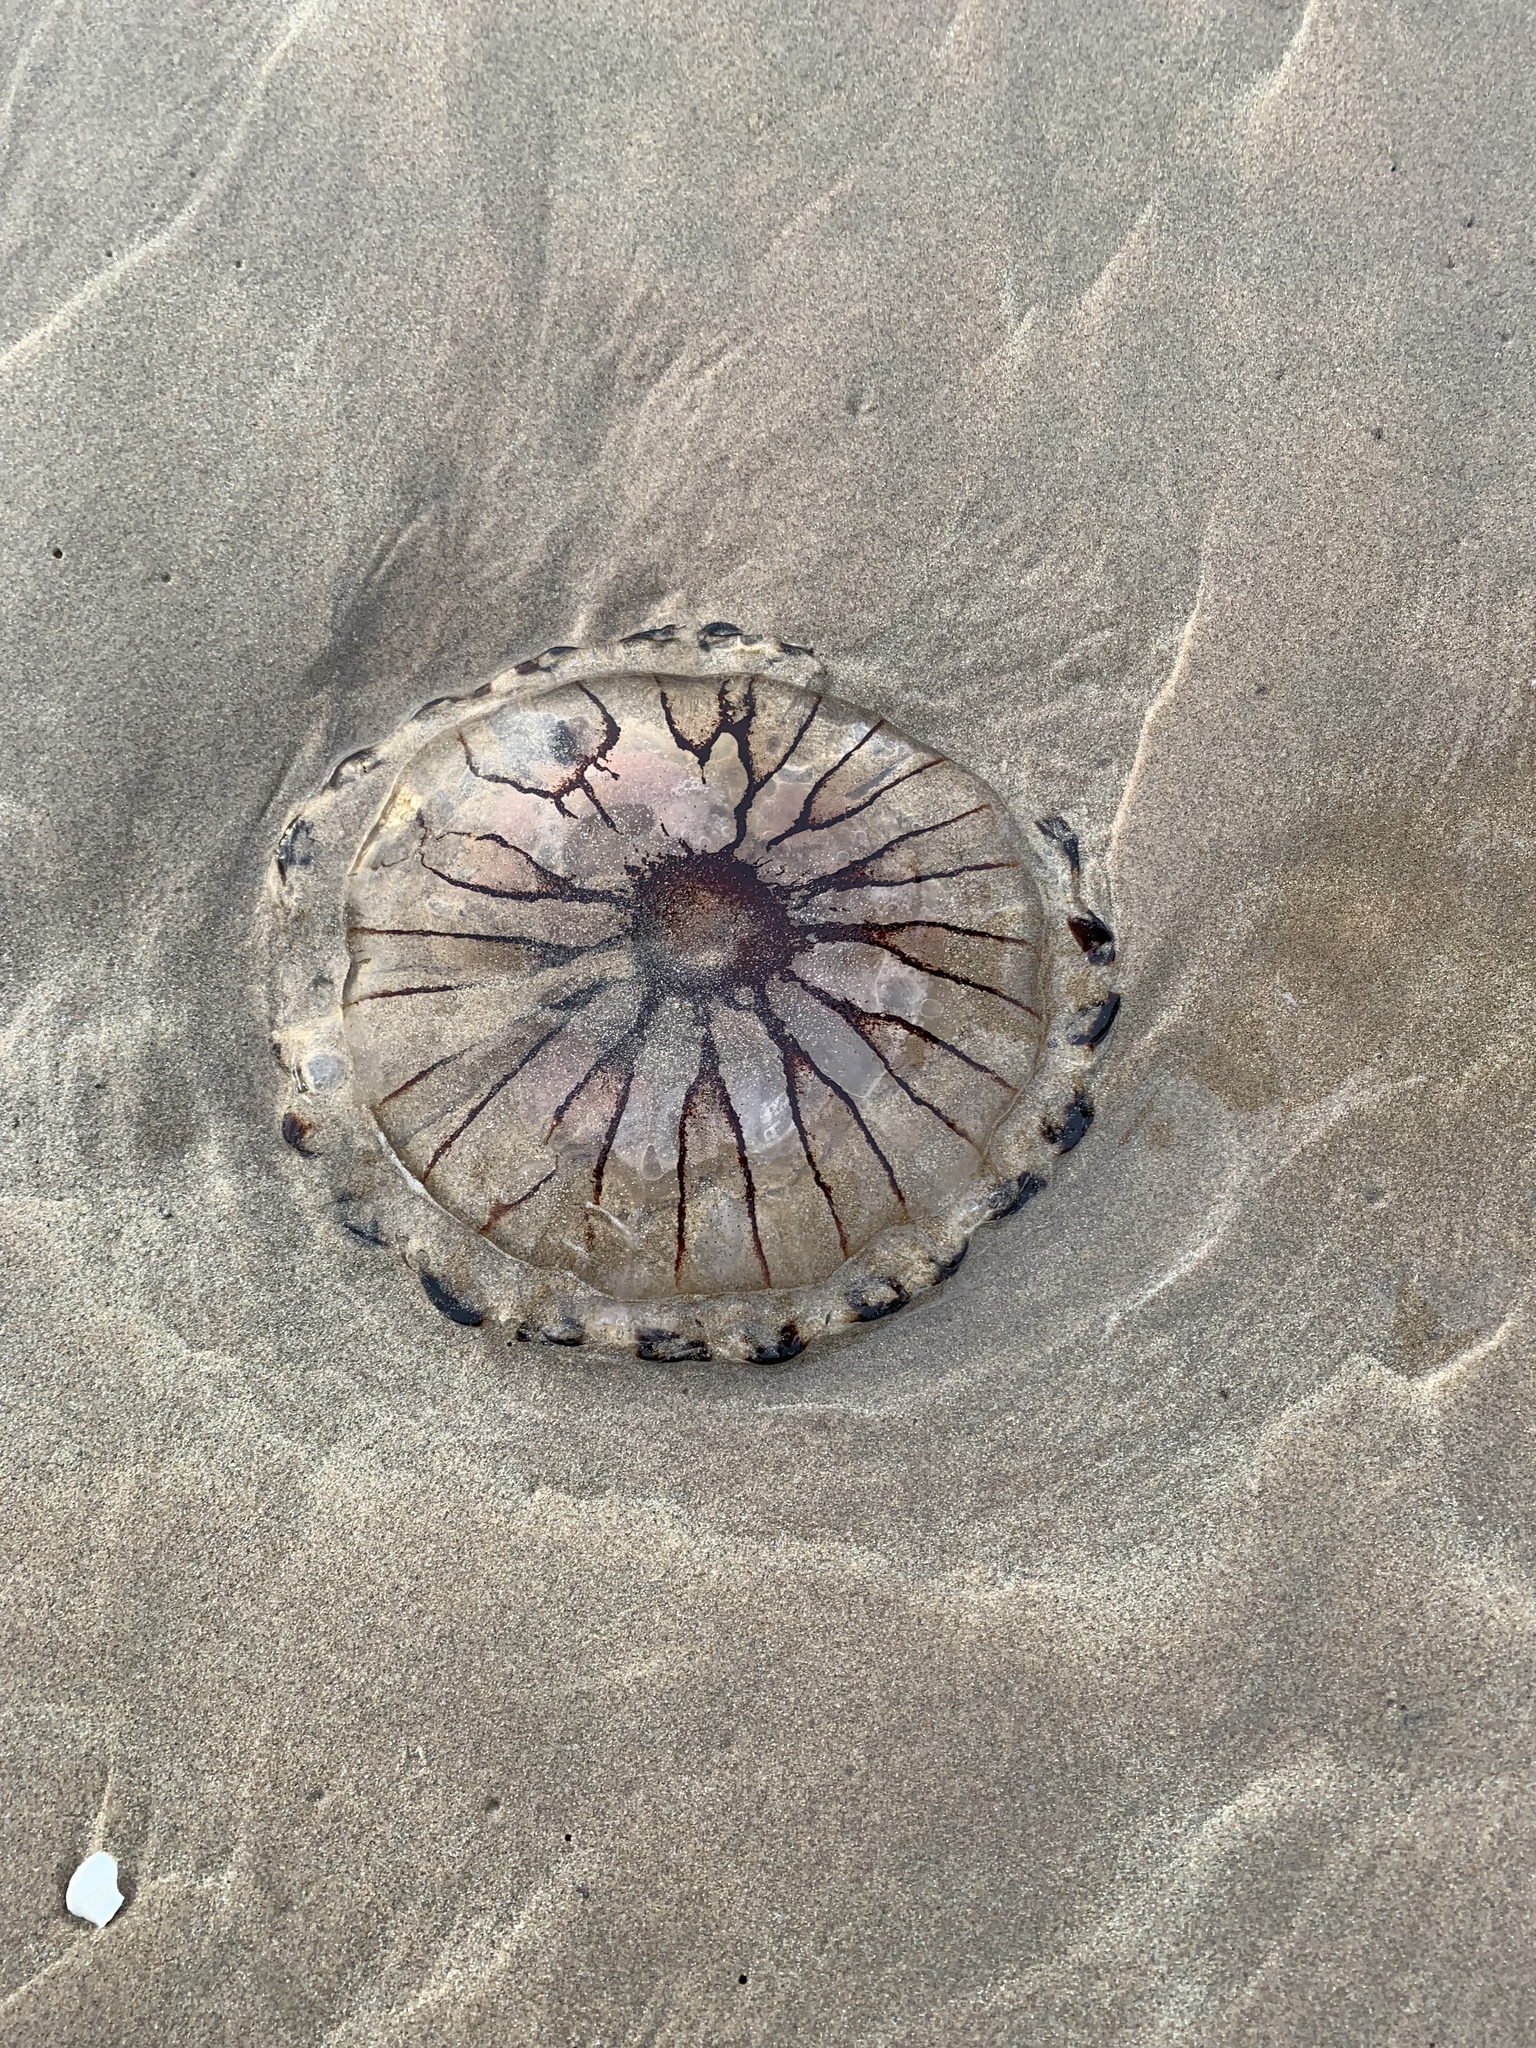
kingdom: Animalia
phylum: Cnidaria
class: Scyphozoa
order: Semaeostomeae
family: Pelagiidae
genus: Chrysaora
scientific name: Chrysaora hysoscella
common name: Compass jellyfish
